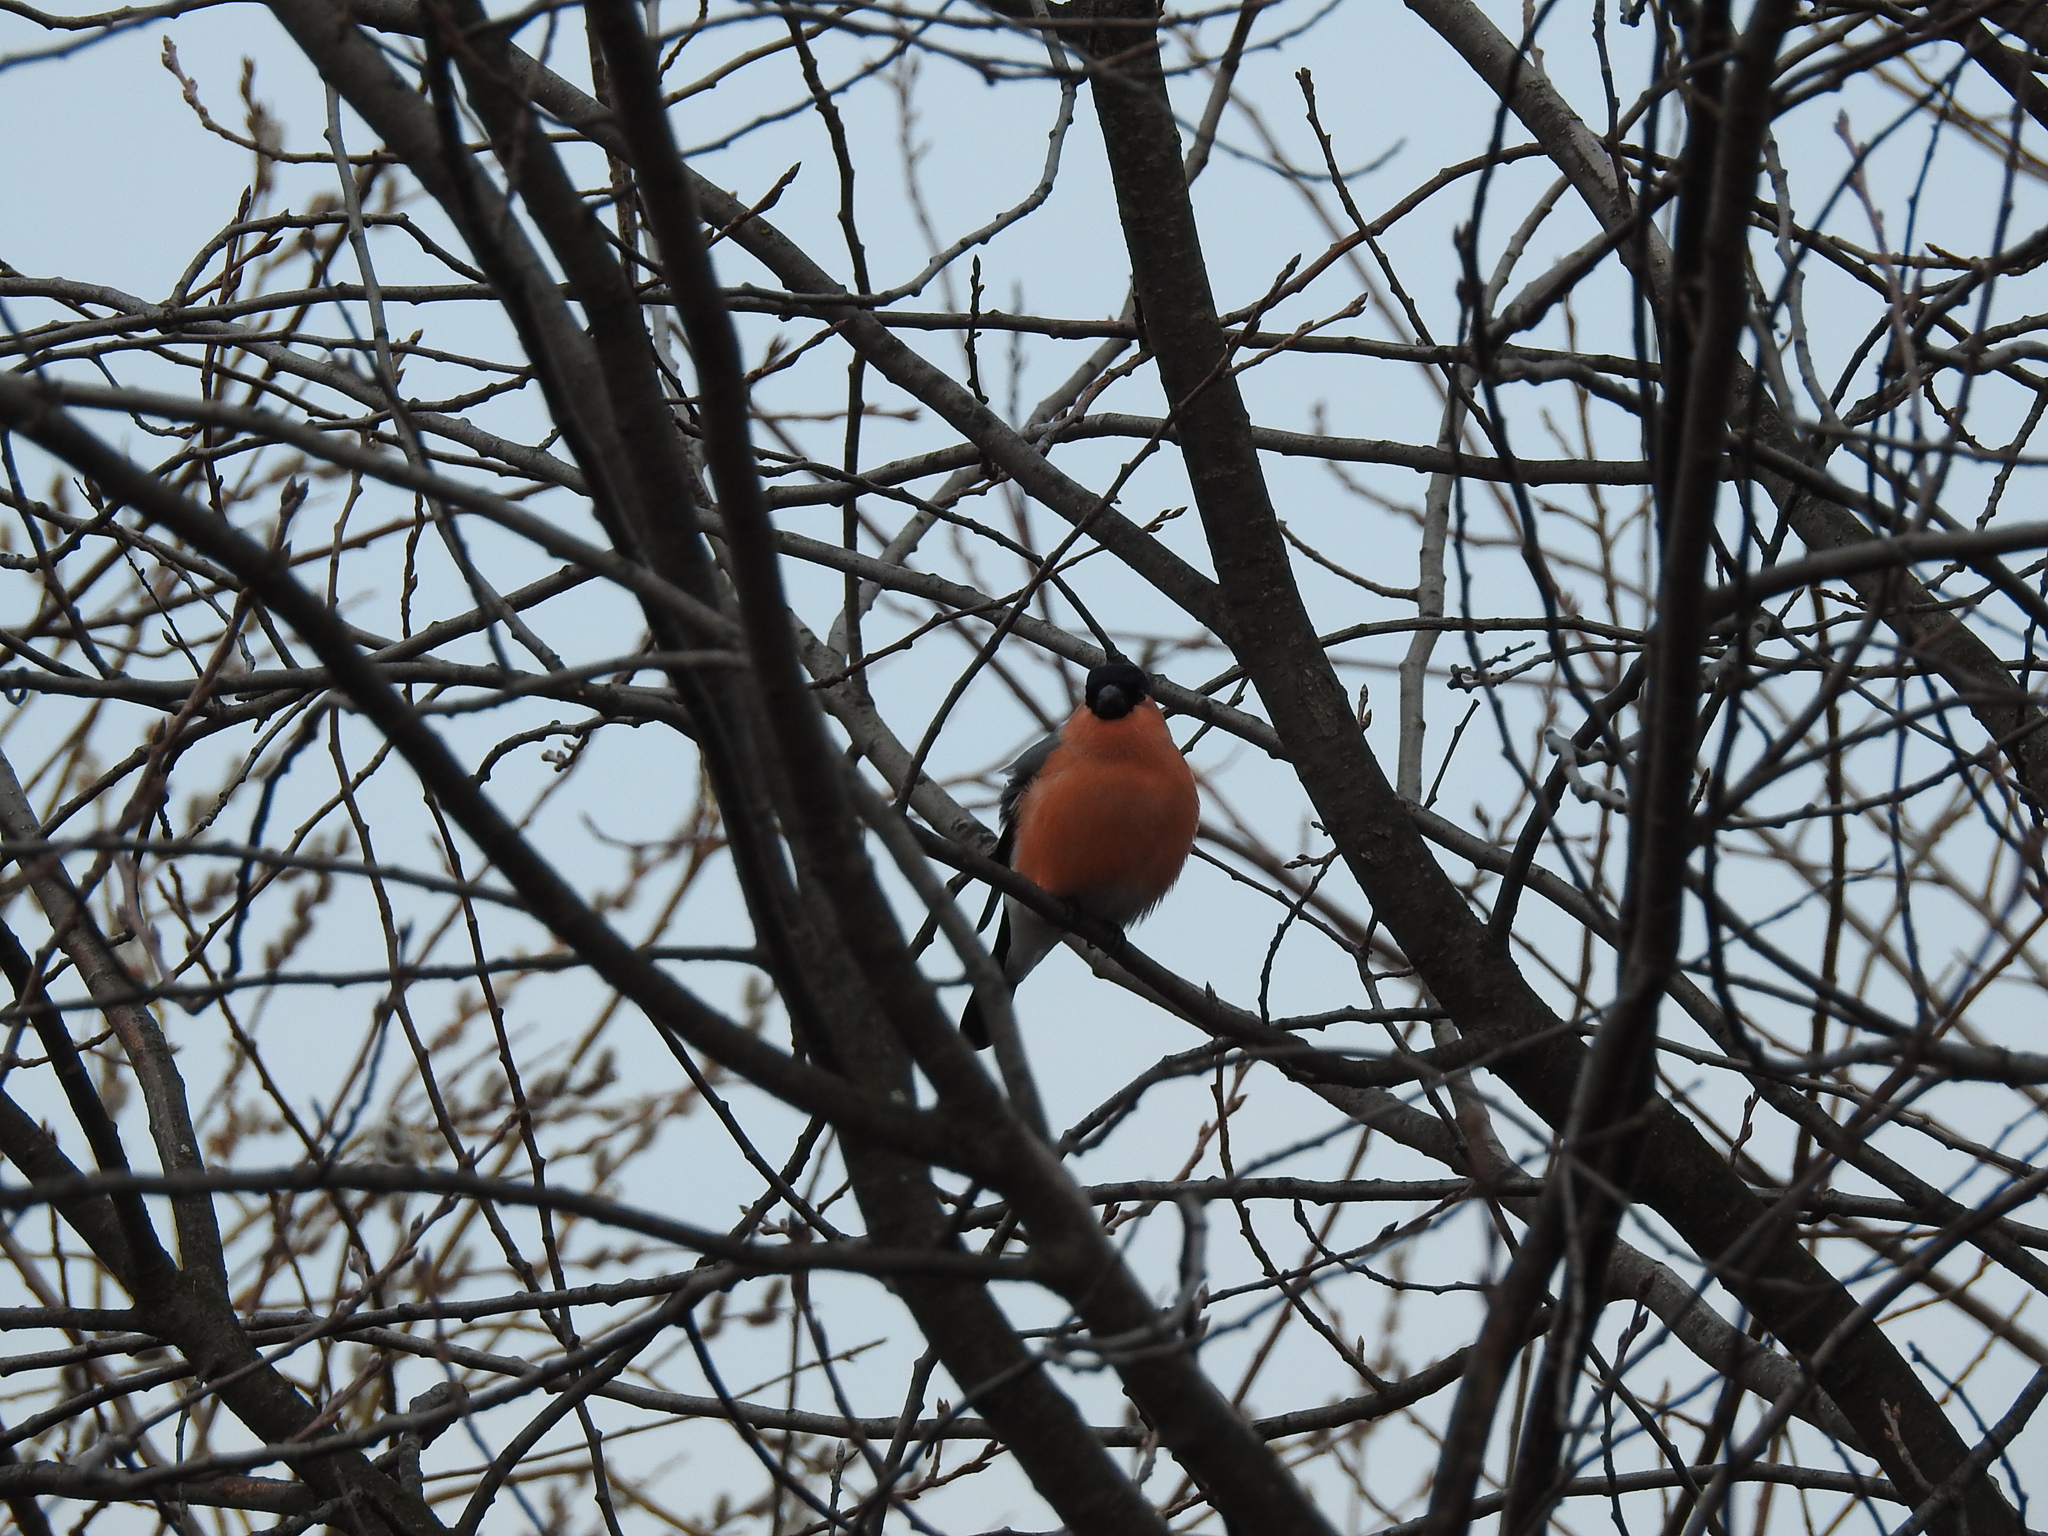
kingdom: Animalia
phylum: Chordata
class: Aves
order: Passeriformes
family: Fringillidae
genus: Pyrrhula
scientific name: Pyrrhula pyrrhula
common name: Eurasian bullfinch
